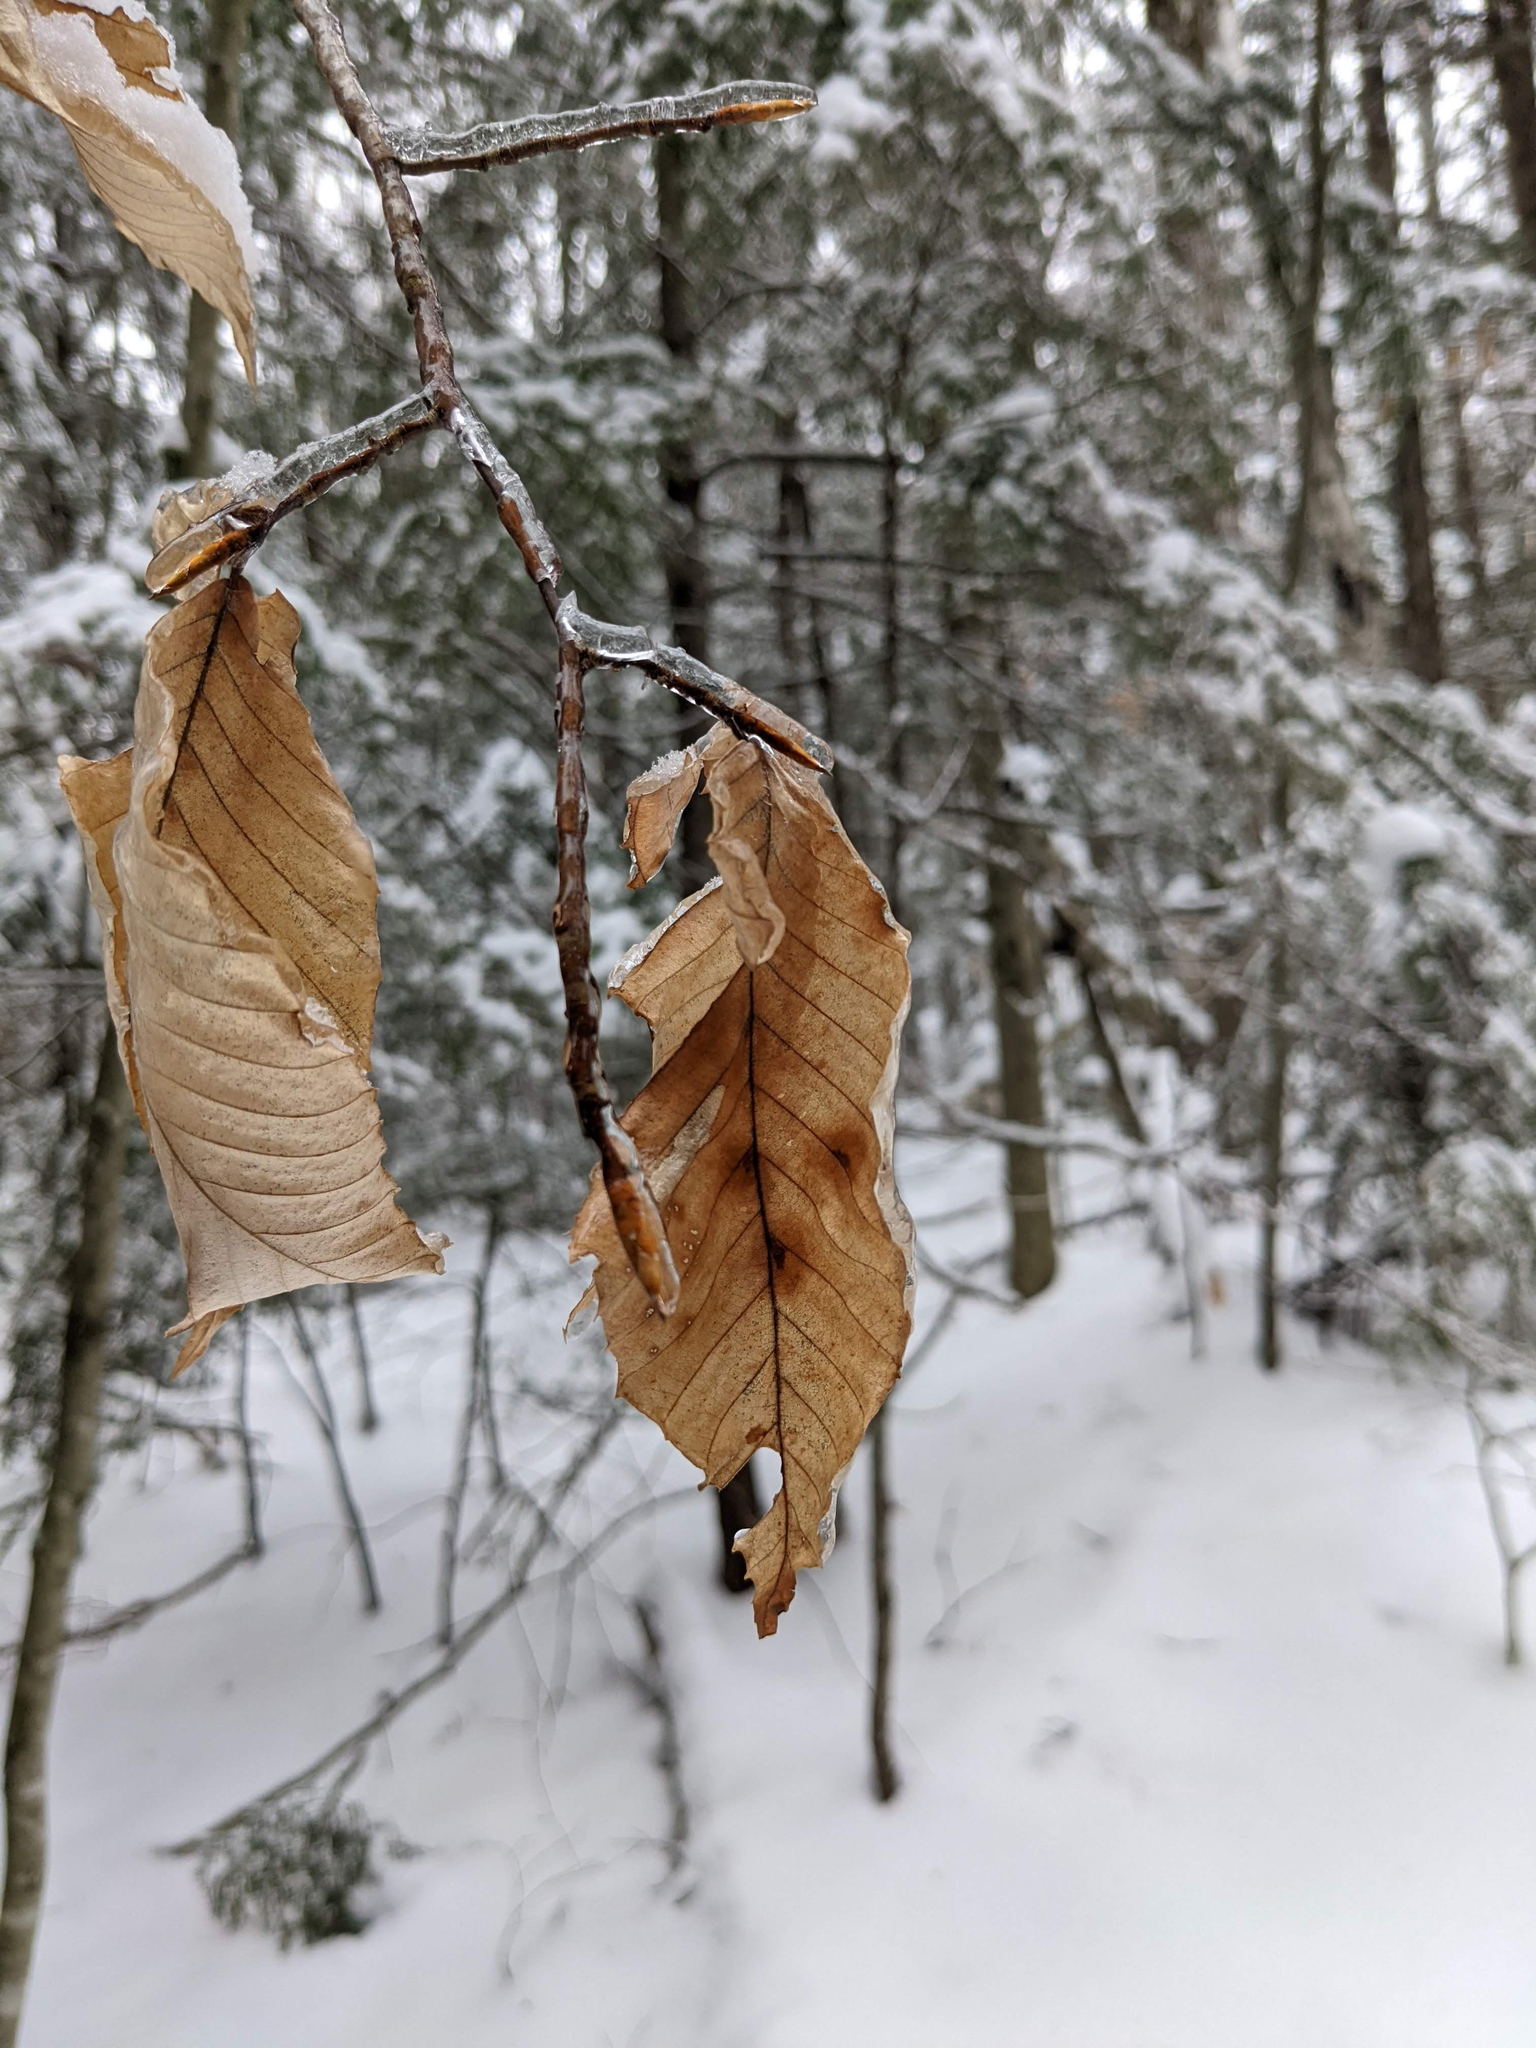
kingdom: Plantae
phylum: Tracheophyta
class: Magnoliopsida
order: Fagales
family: Fagaceae
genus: Fagus
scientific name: Fagus grandifolia
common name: American beech
